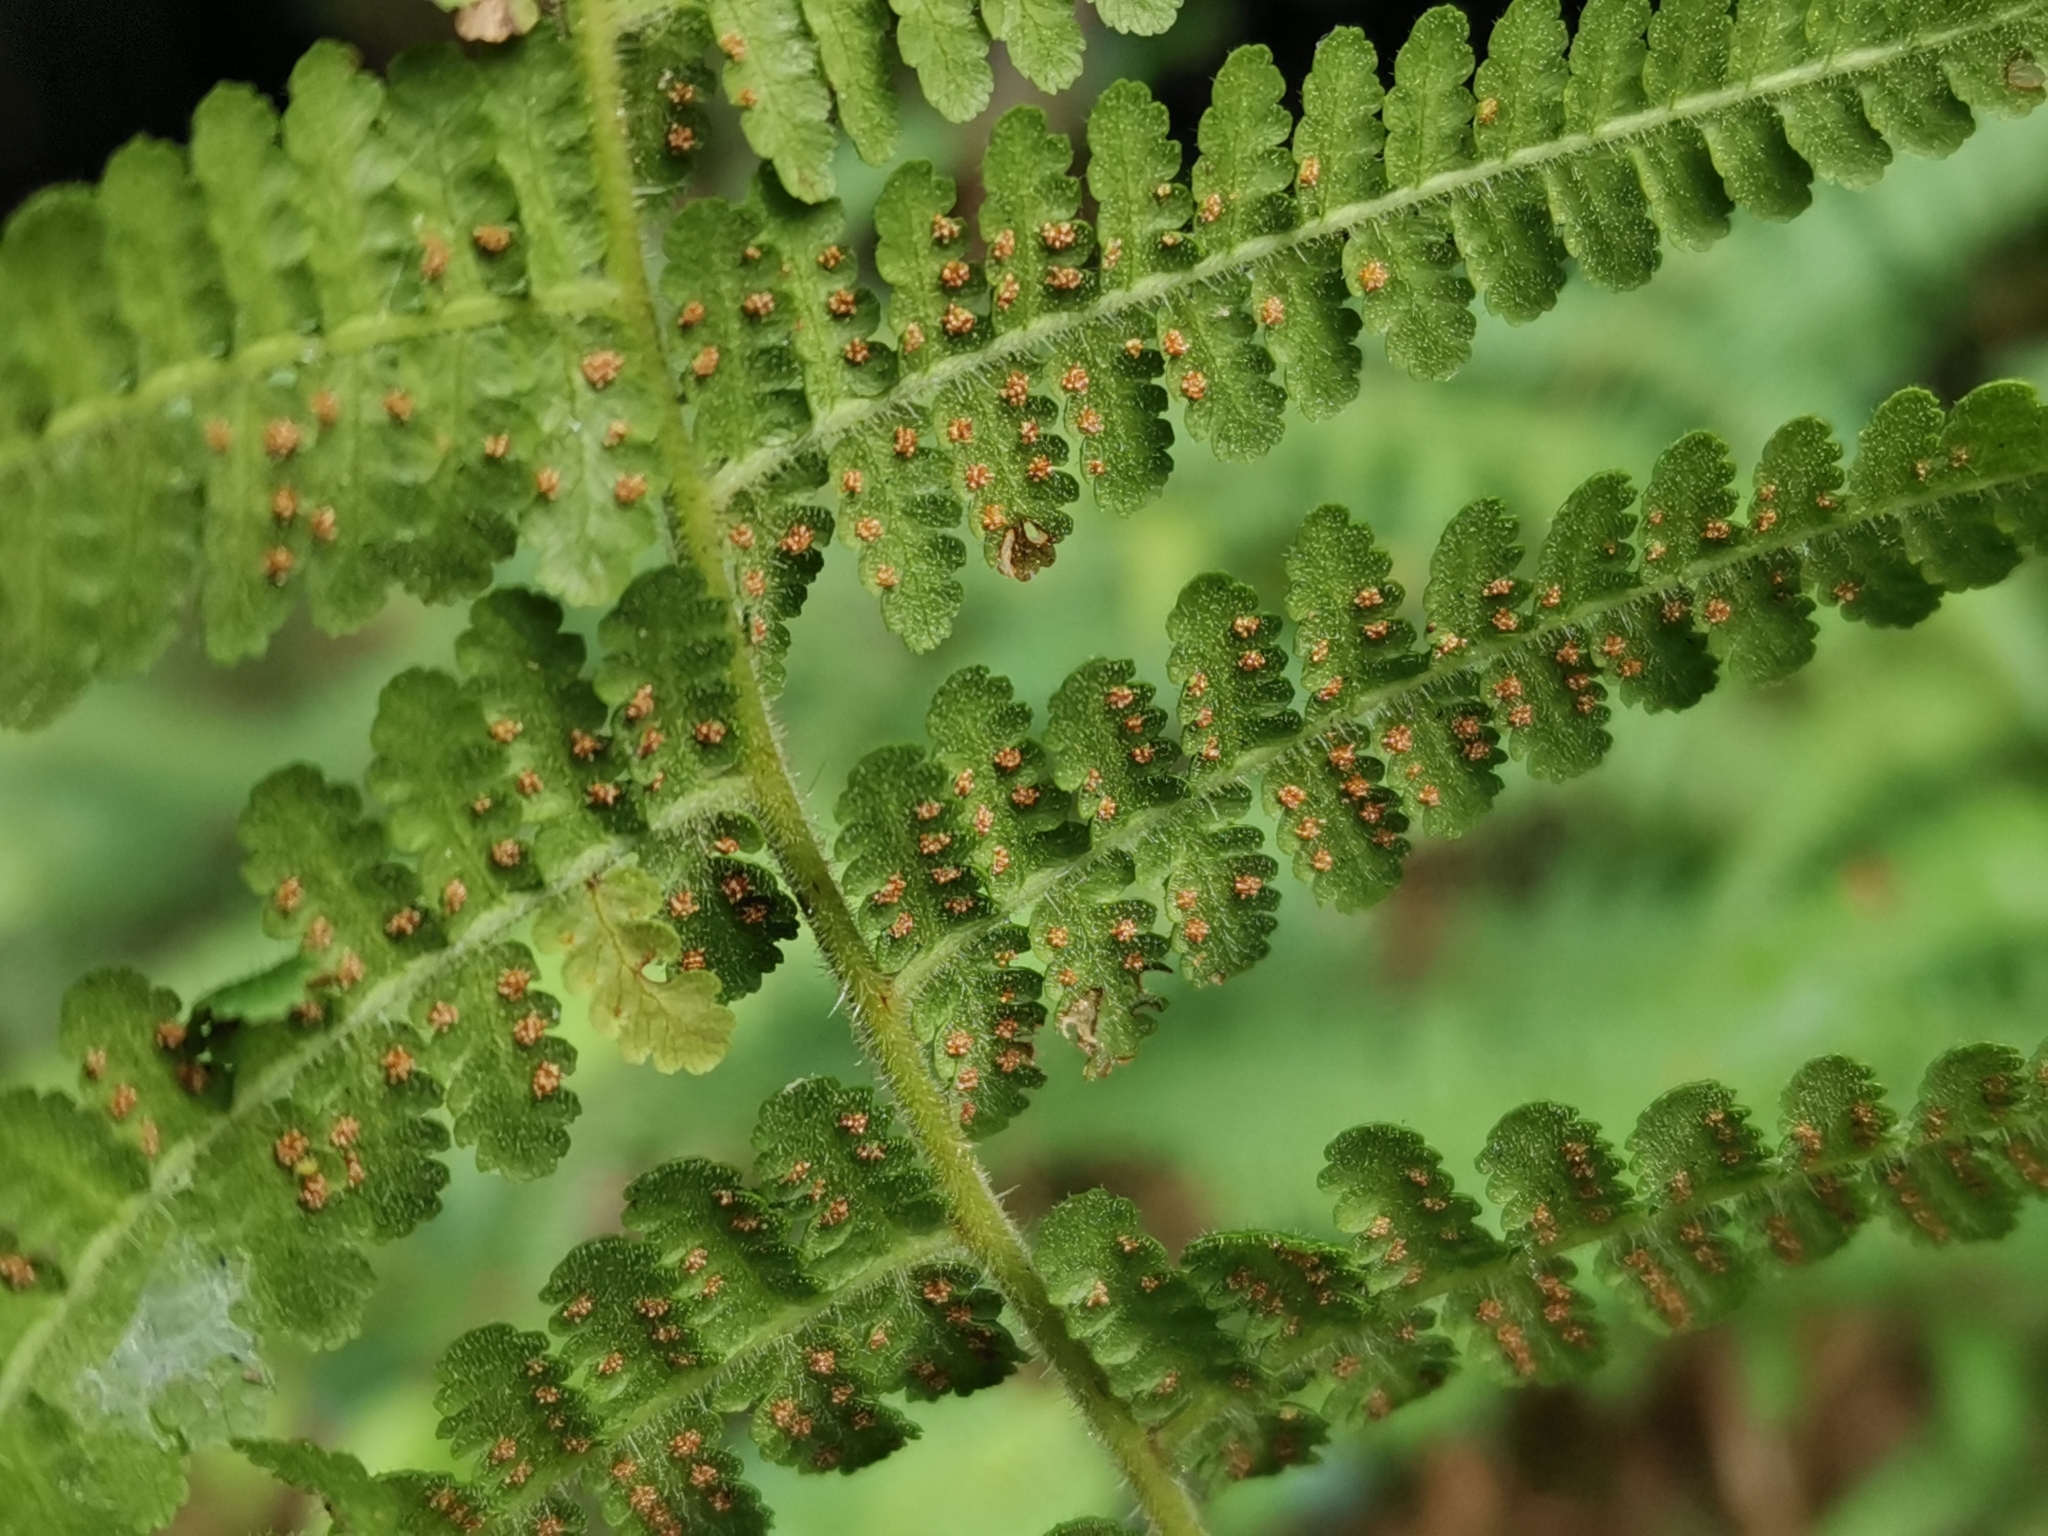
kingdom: Plantae
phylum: Tracheophyta
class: Polypodiopsida
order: Polypodiales
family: Dennstaedtiaceae
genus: Hypolepis
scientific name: Hypolepis punctata
